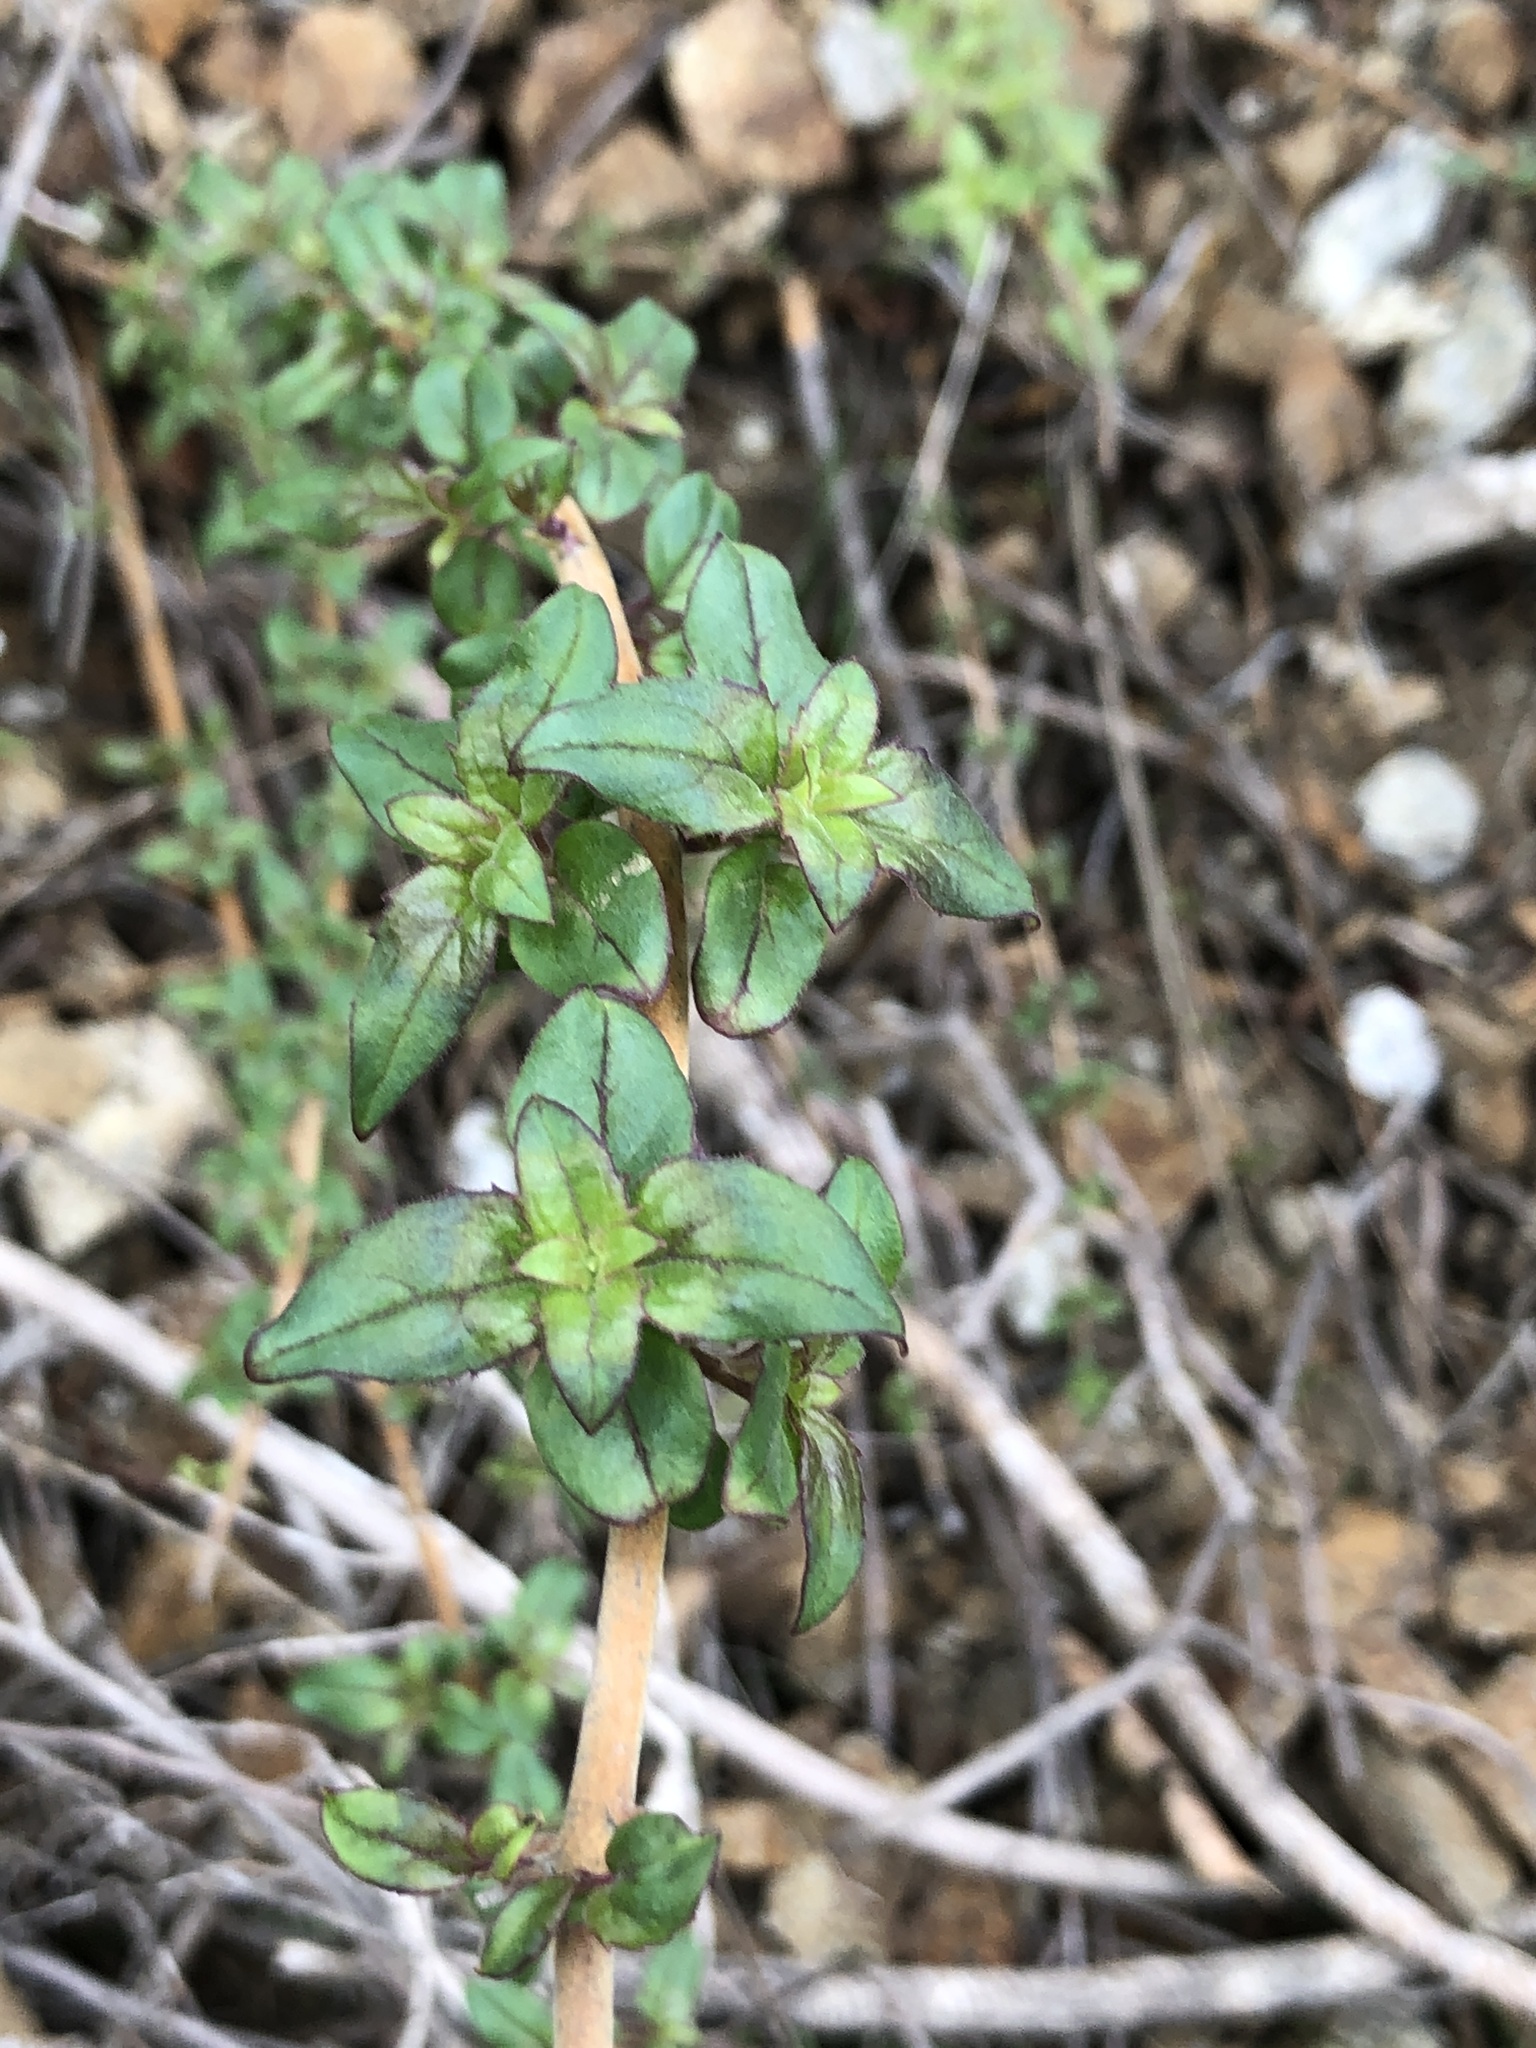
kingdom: Plantae
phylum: Tracheophyta
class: Magnoliopsida
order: Lamiales
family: Plantaginaceae
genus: Keckiella
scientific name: Keckiella cordifolia
